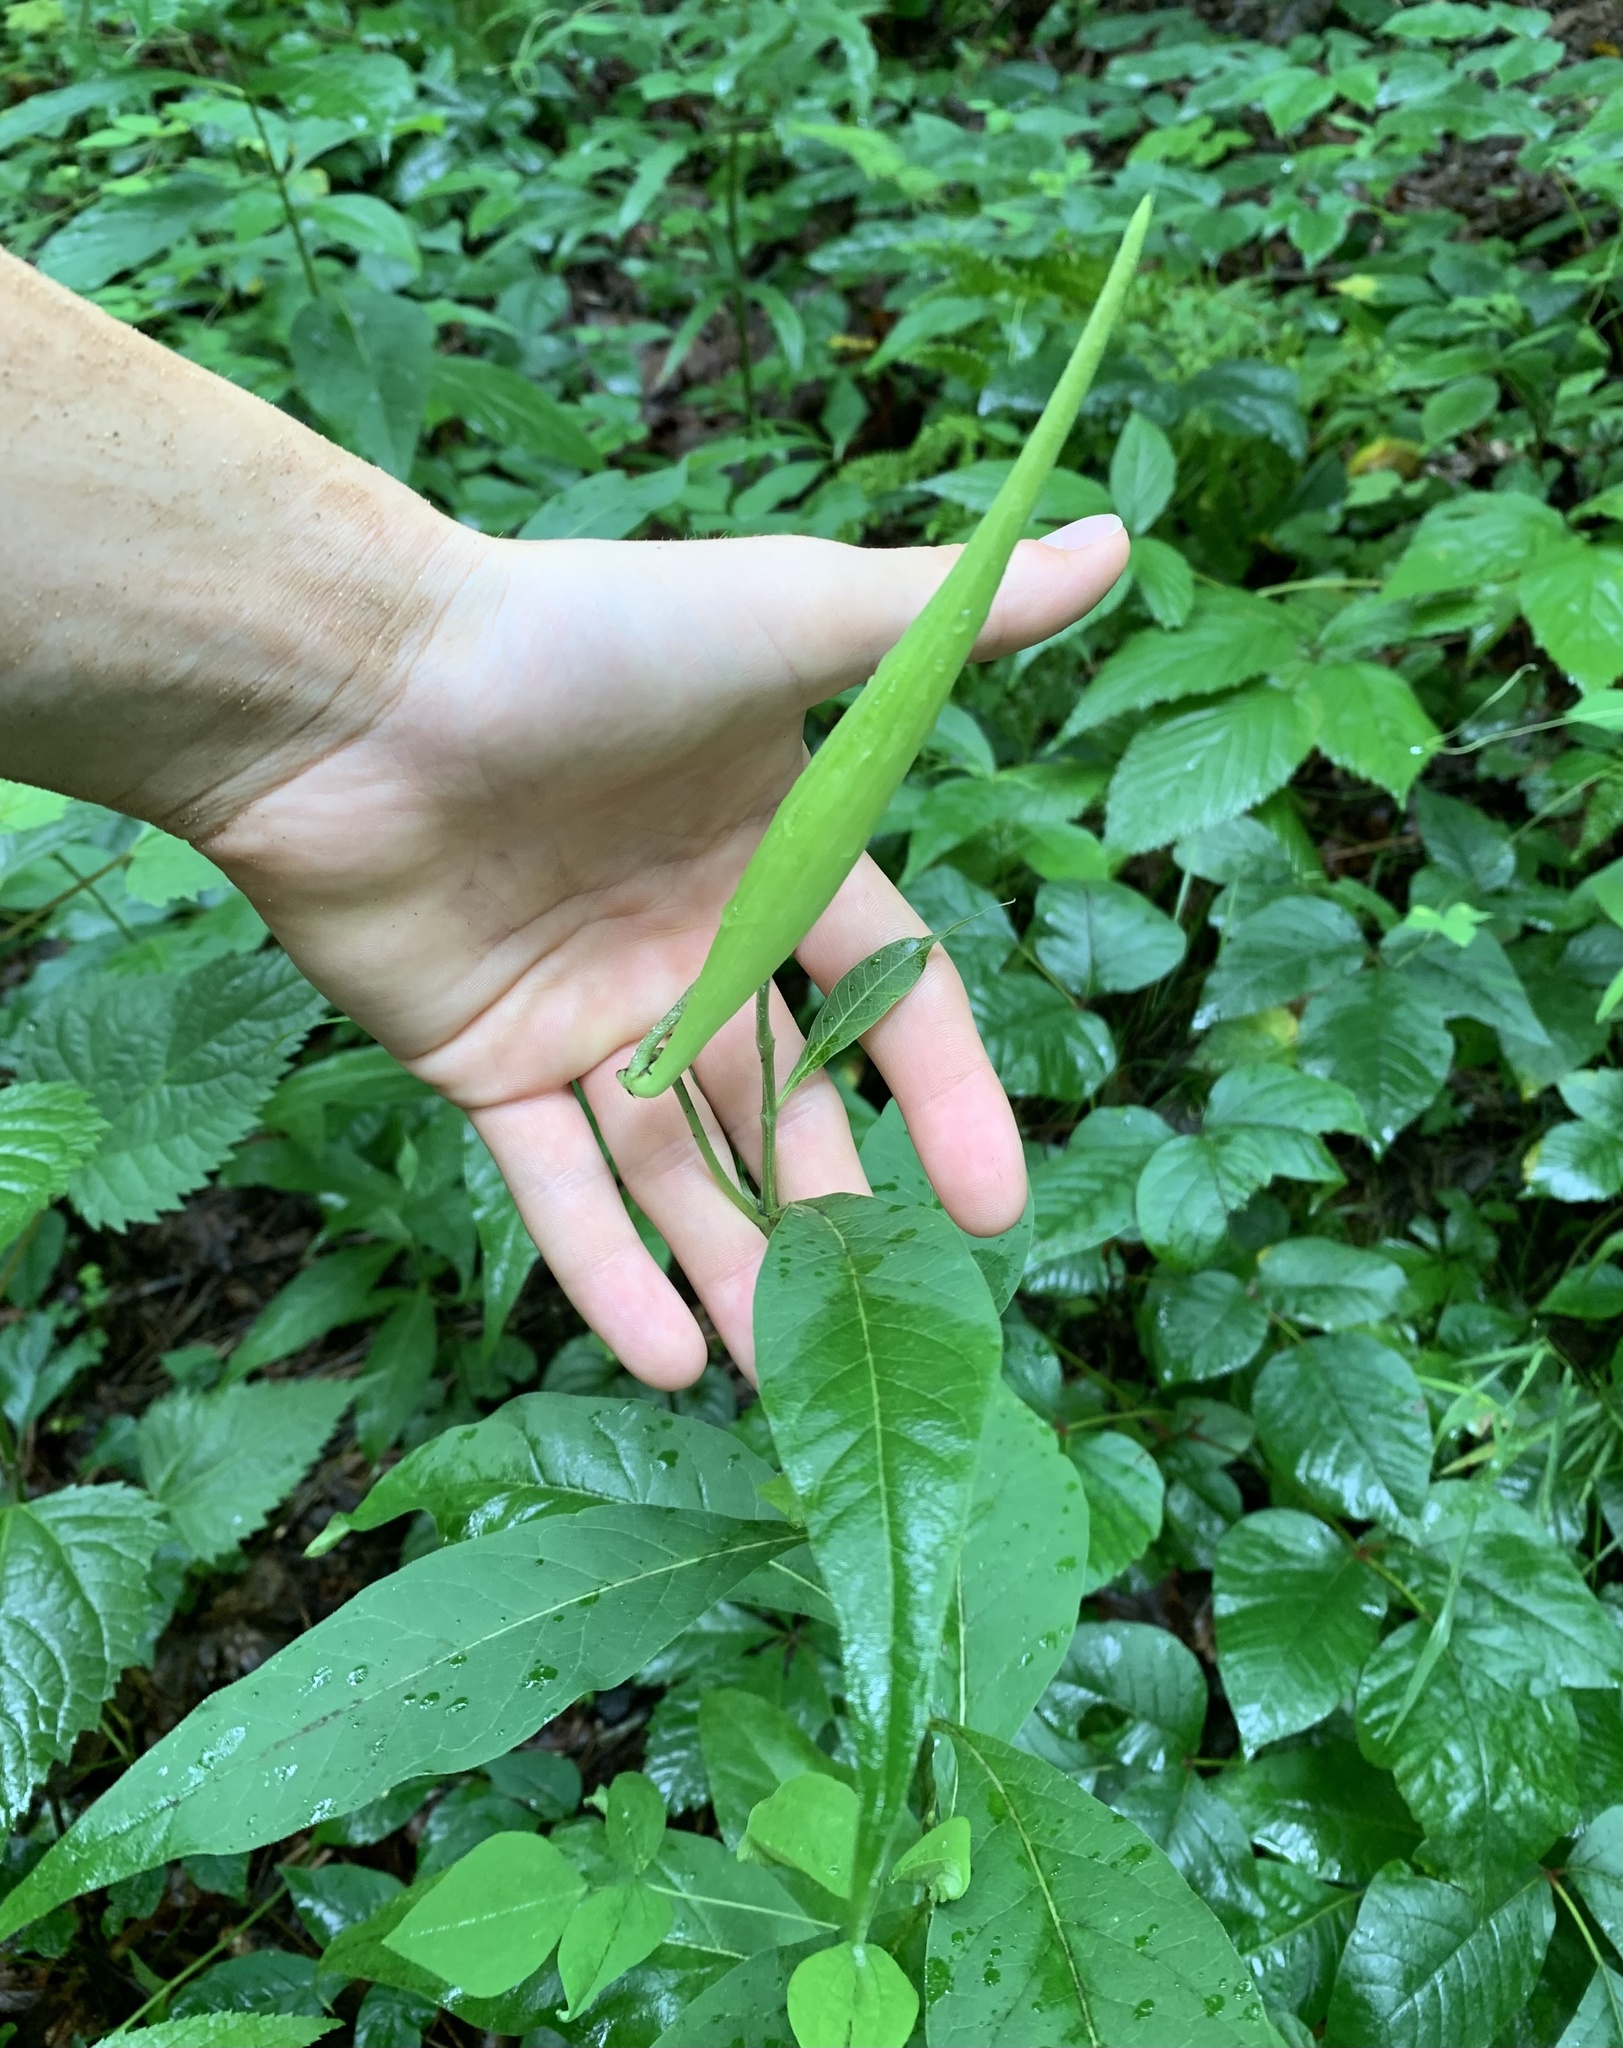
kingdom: Plantae
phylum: Tracheophyta
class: Magnoliopsida
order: Gentianales
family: Apocynaceae
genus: Asclepias
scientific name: Asclepias exaltata
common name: Poke milkweed
